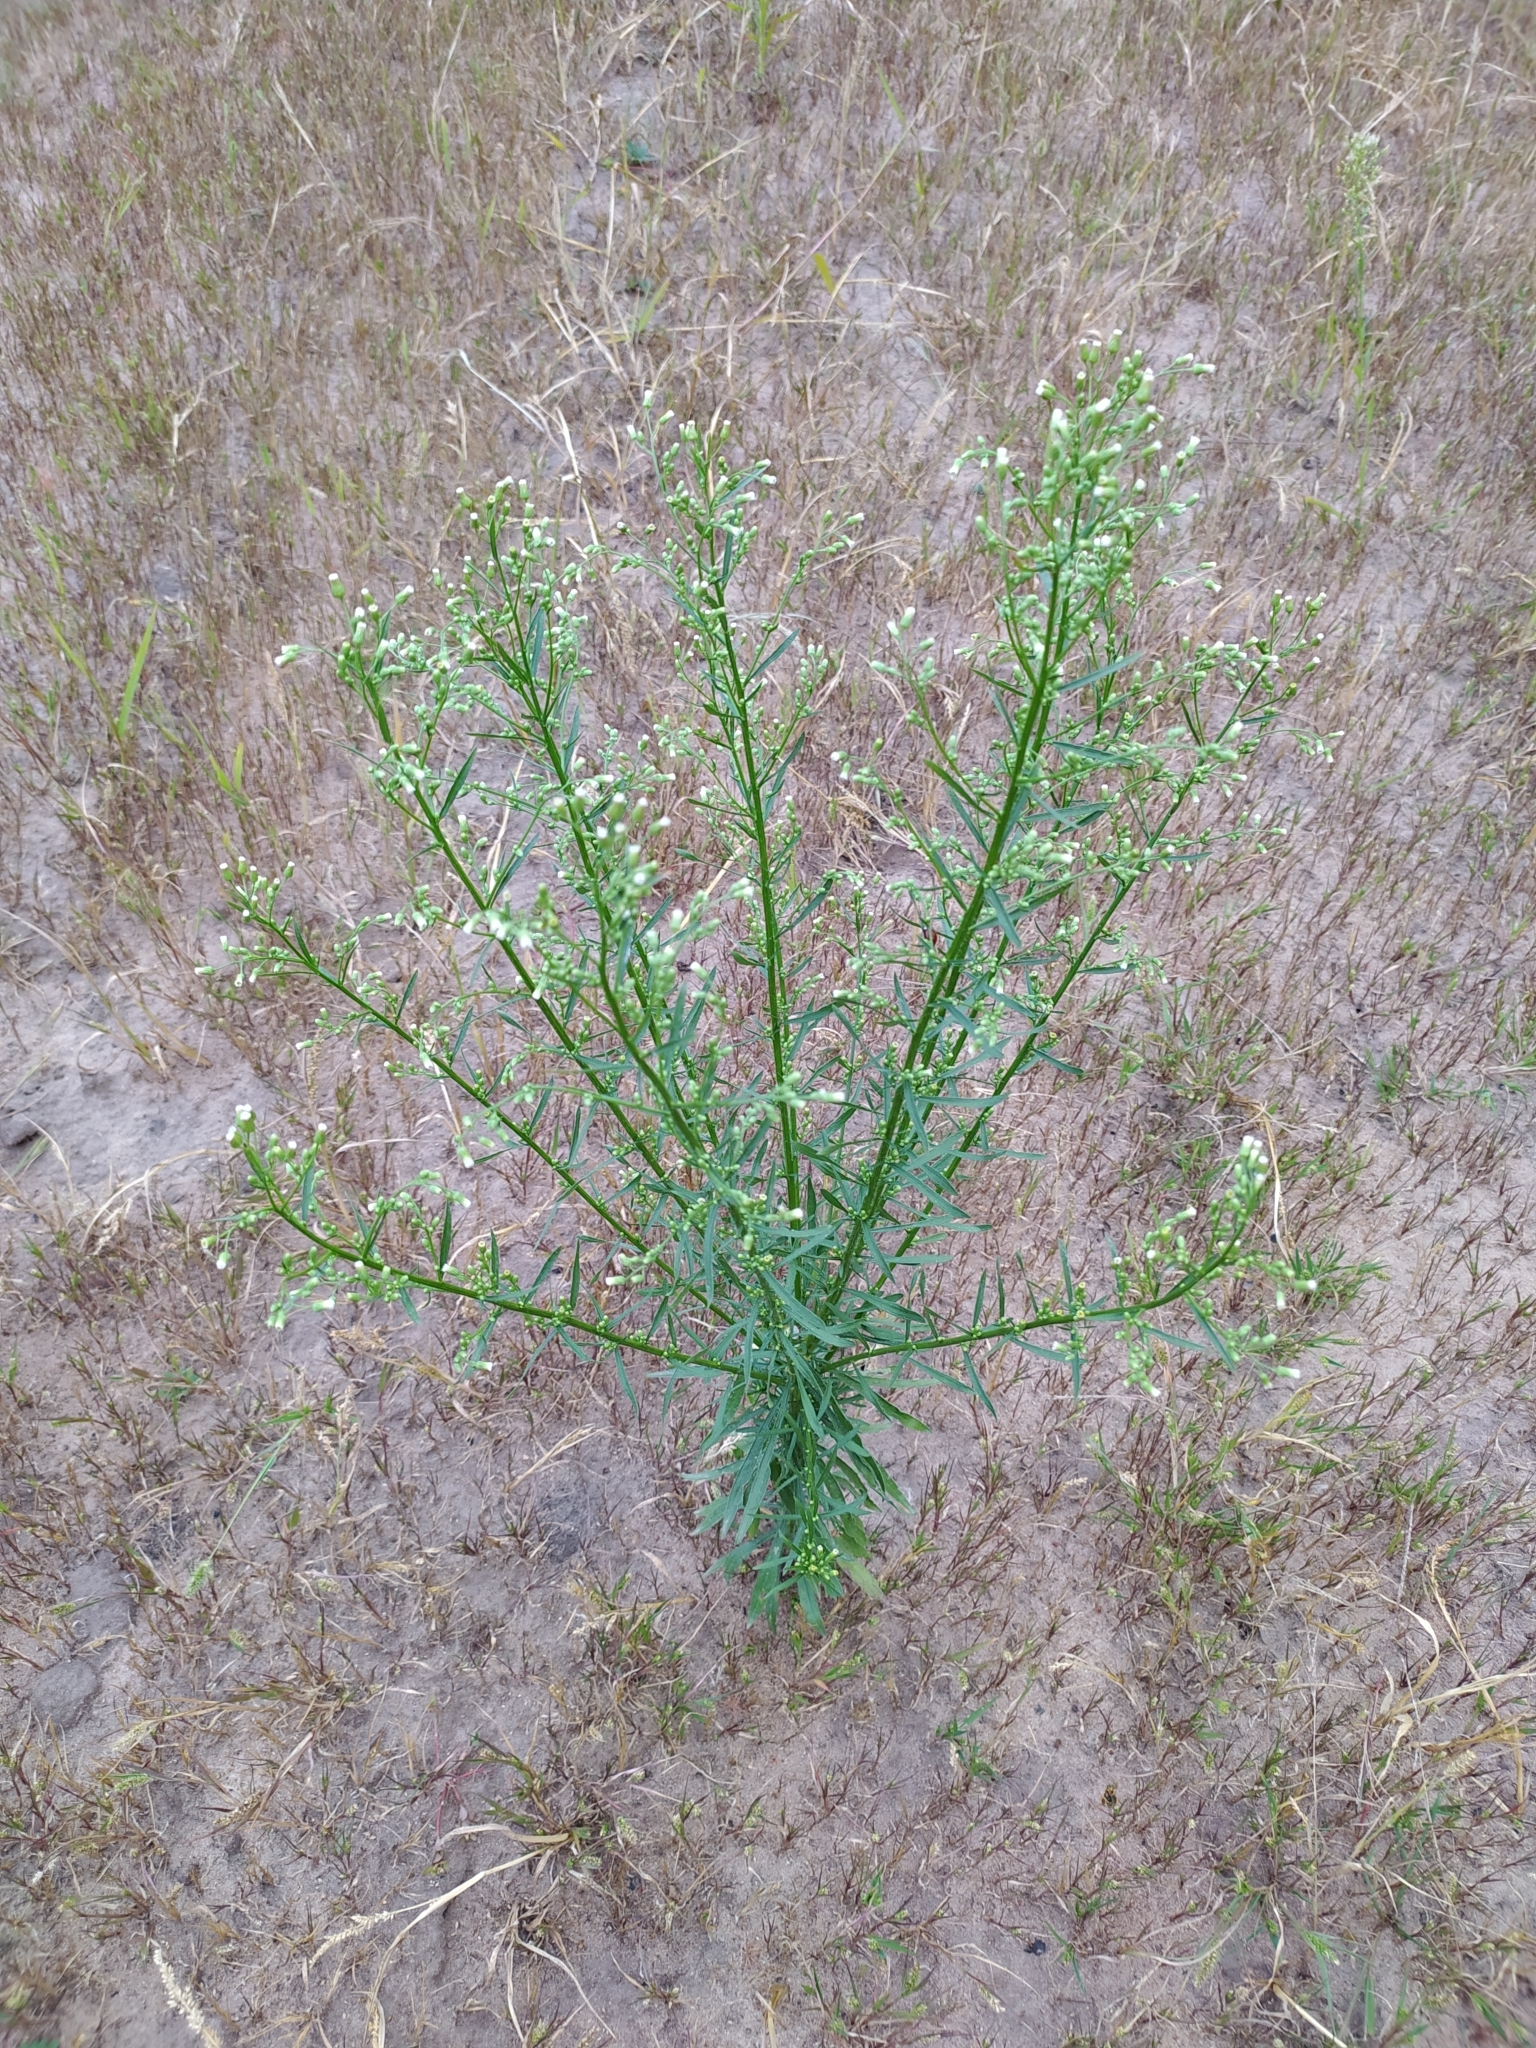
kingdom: Plantae
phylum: Tracheophyta
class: Magnoliopsida
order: Asterales
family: Asteraceae
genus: Erigeron
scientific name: Erigeron canadensis
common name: Canadian fleabane
